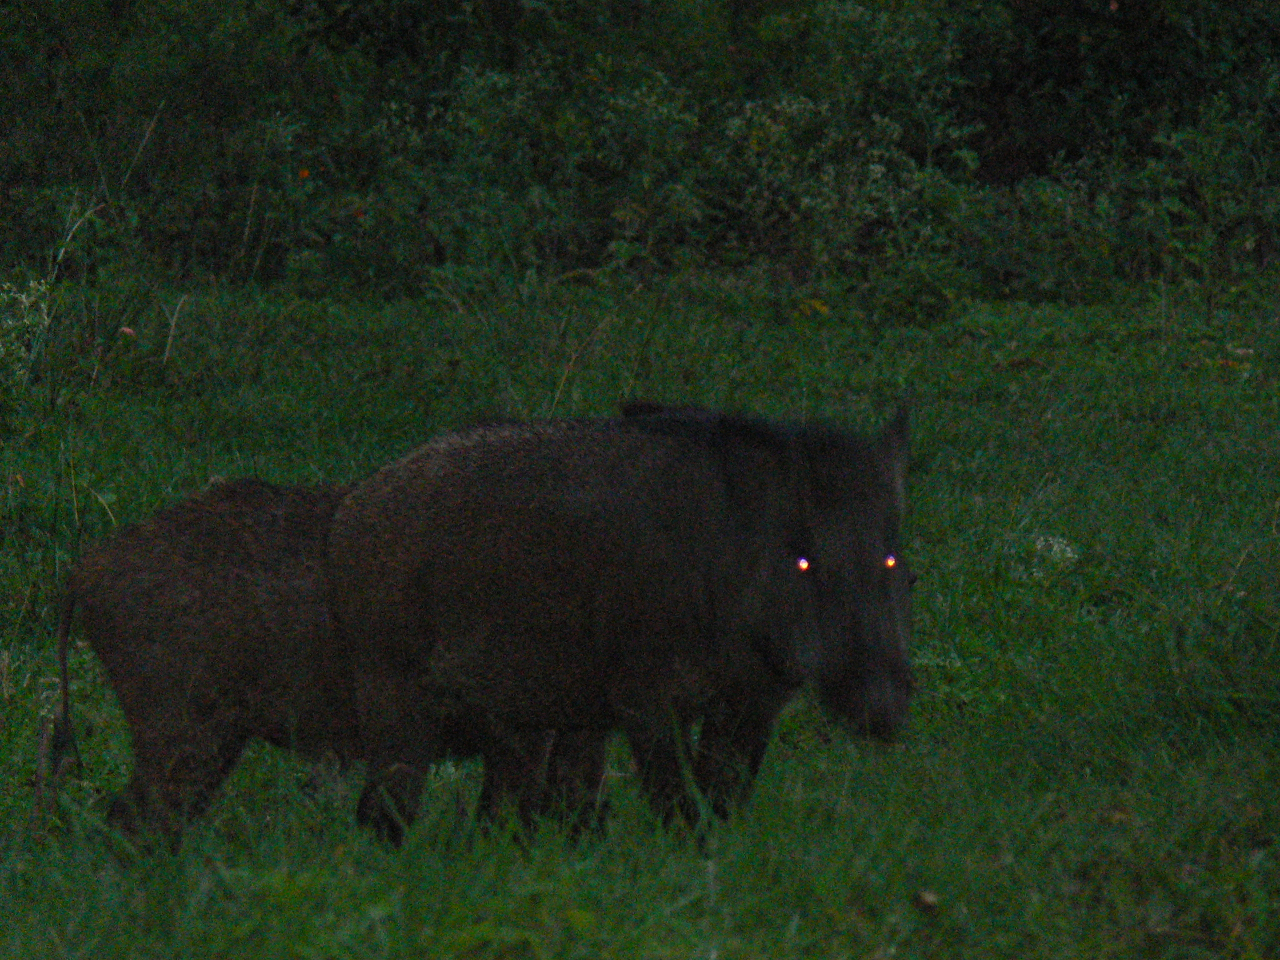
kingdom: Animalia
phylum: Chordata
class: Mammalia
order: Artiodactyla
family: Suidae
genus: Sus
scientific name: Sus scrofa
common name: Wild boar
